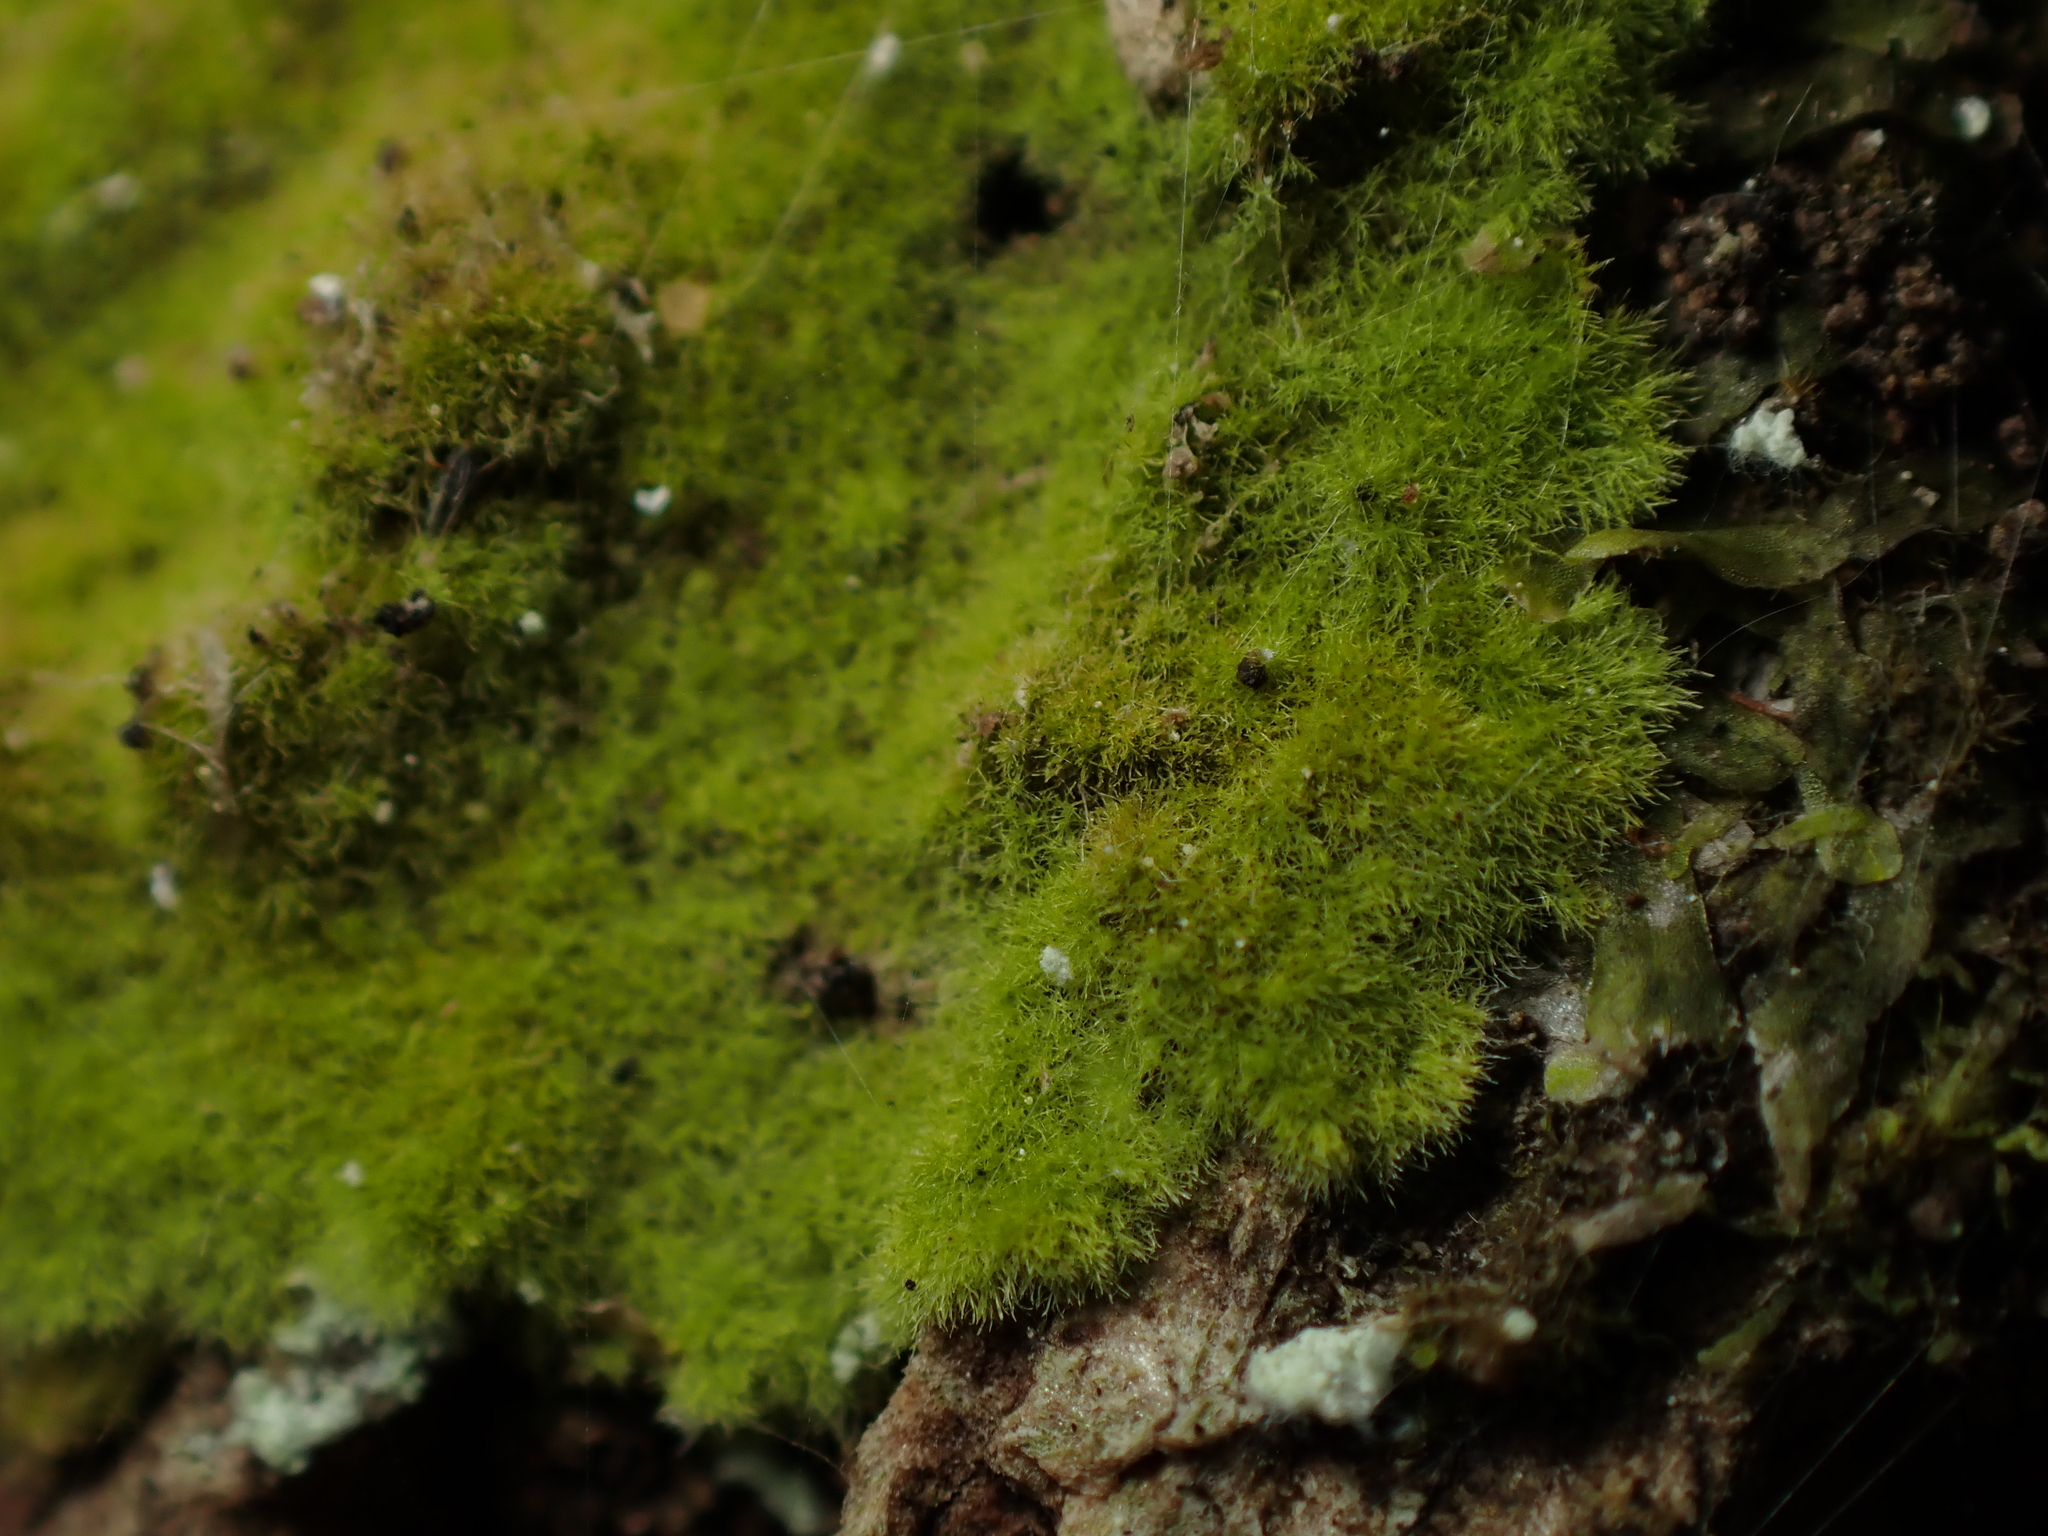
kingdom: Fungi
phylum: Ascomycota
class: Lecanoromycetes
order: Ostropales
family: Coenogoniaceae
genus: Coenogonium
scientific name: Coenogonium implexum
